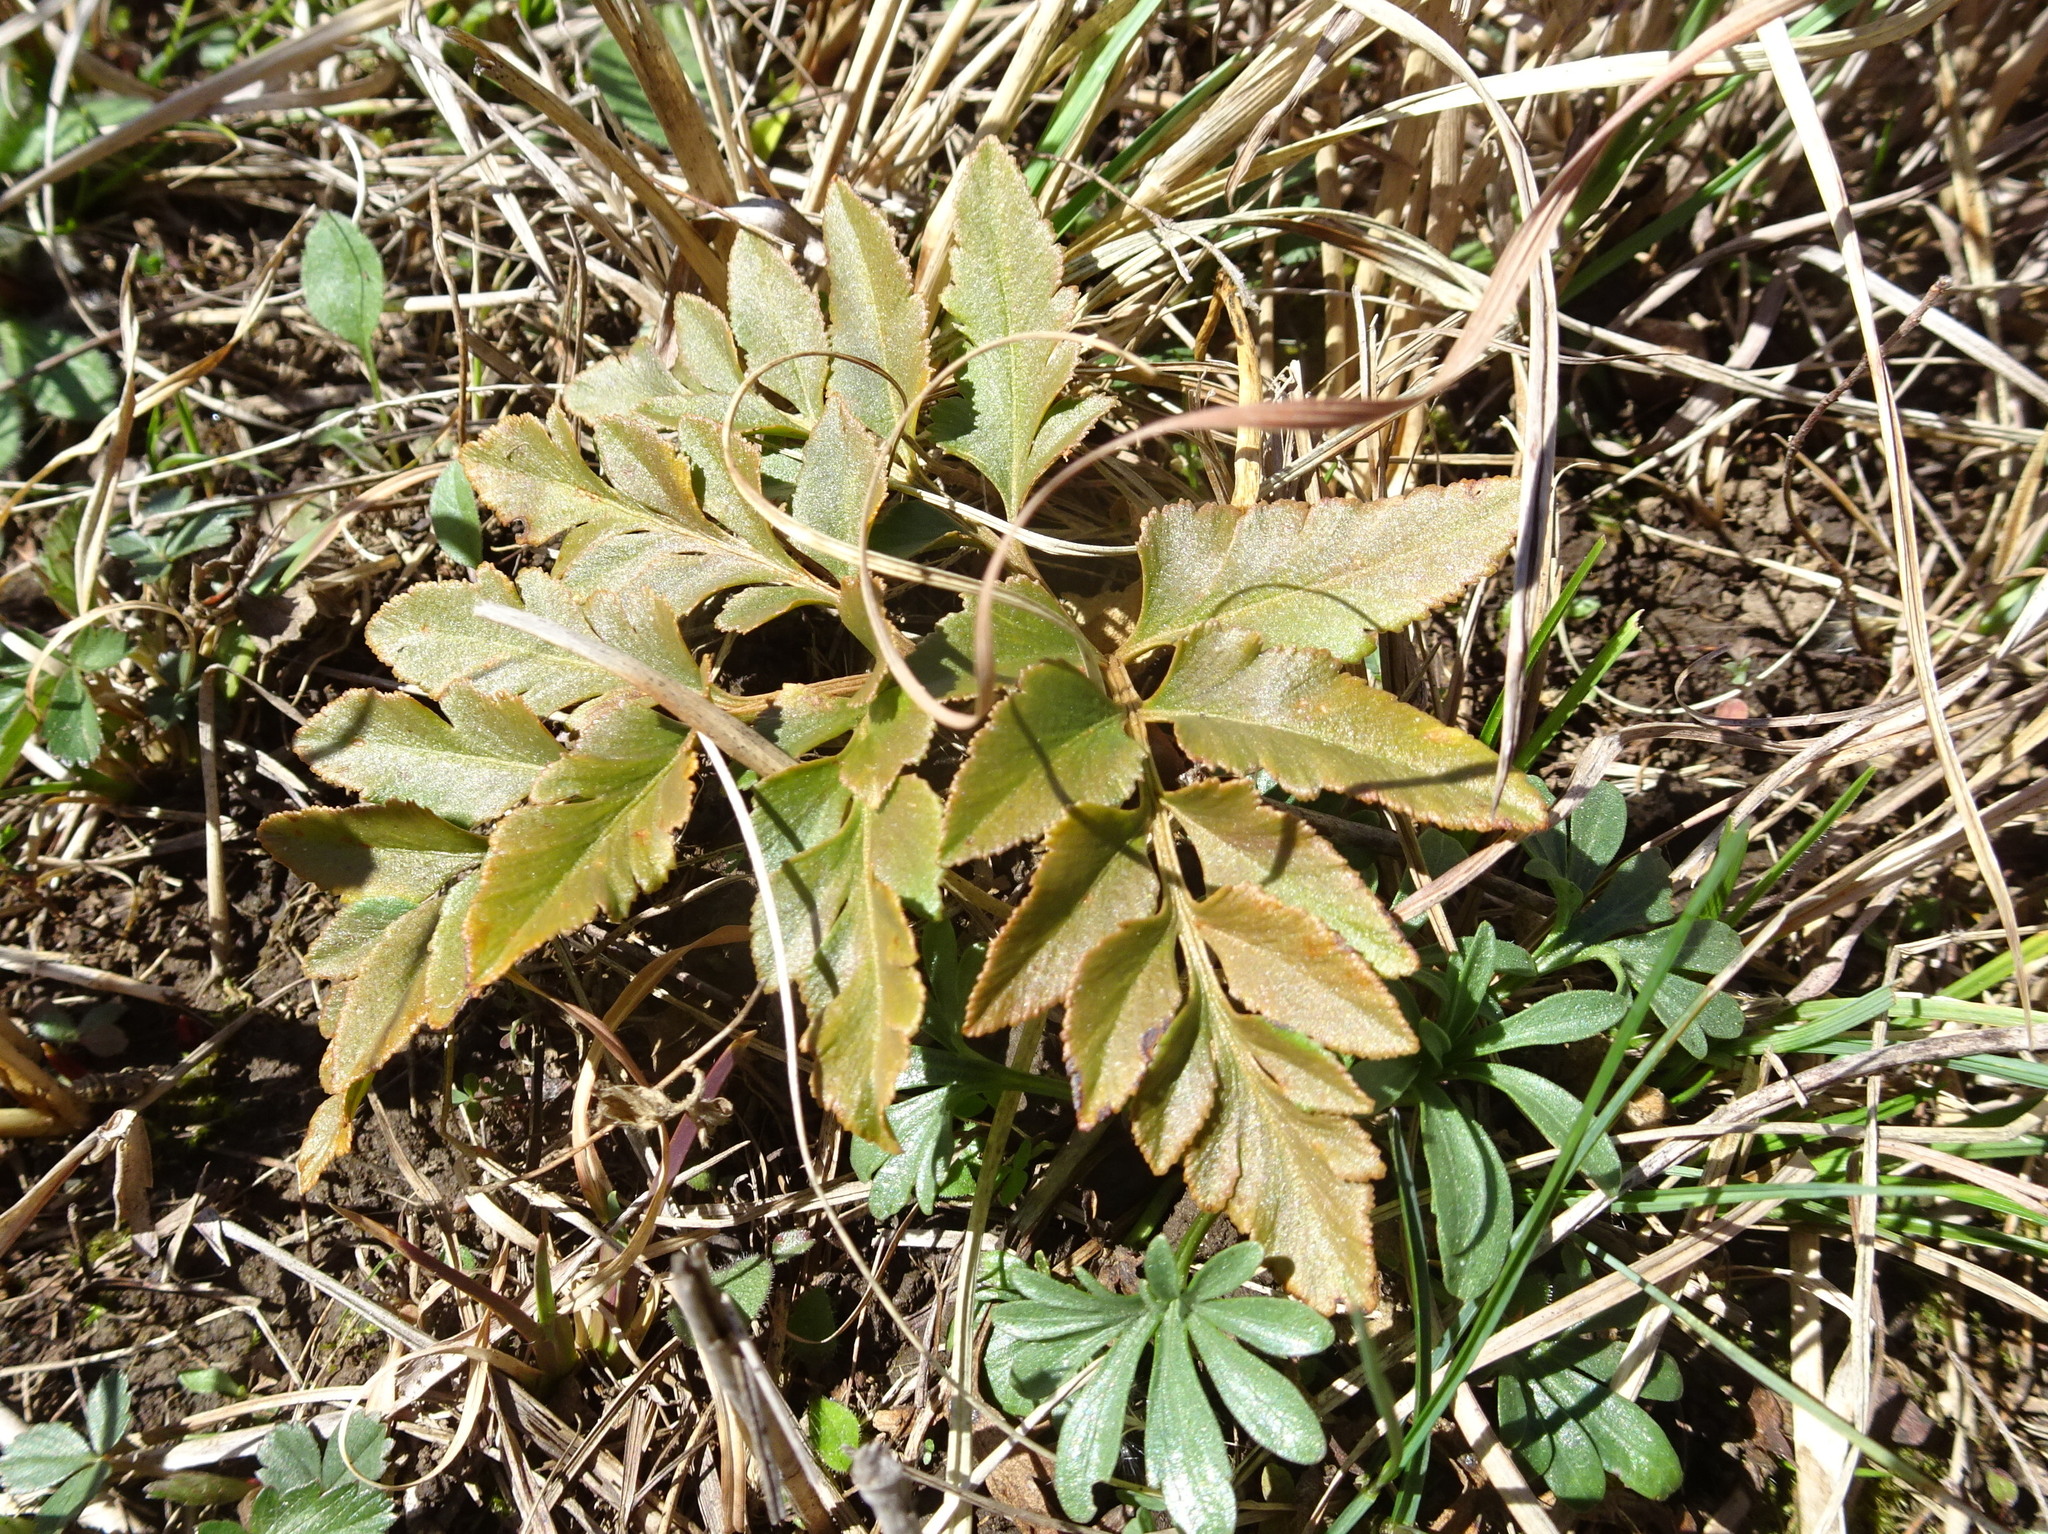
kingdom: Plantae
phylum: Tracheophyta
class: Polypodiopsida
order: Ophioglossales
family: Ophioglossaceae
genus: Sceptridium
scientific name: Sceptridium dissectum
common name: Cut-leaved grapefern
